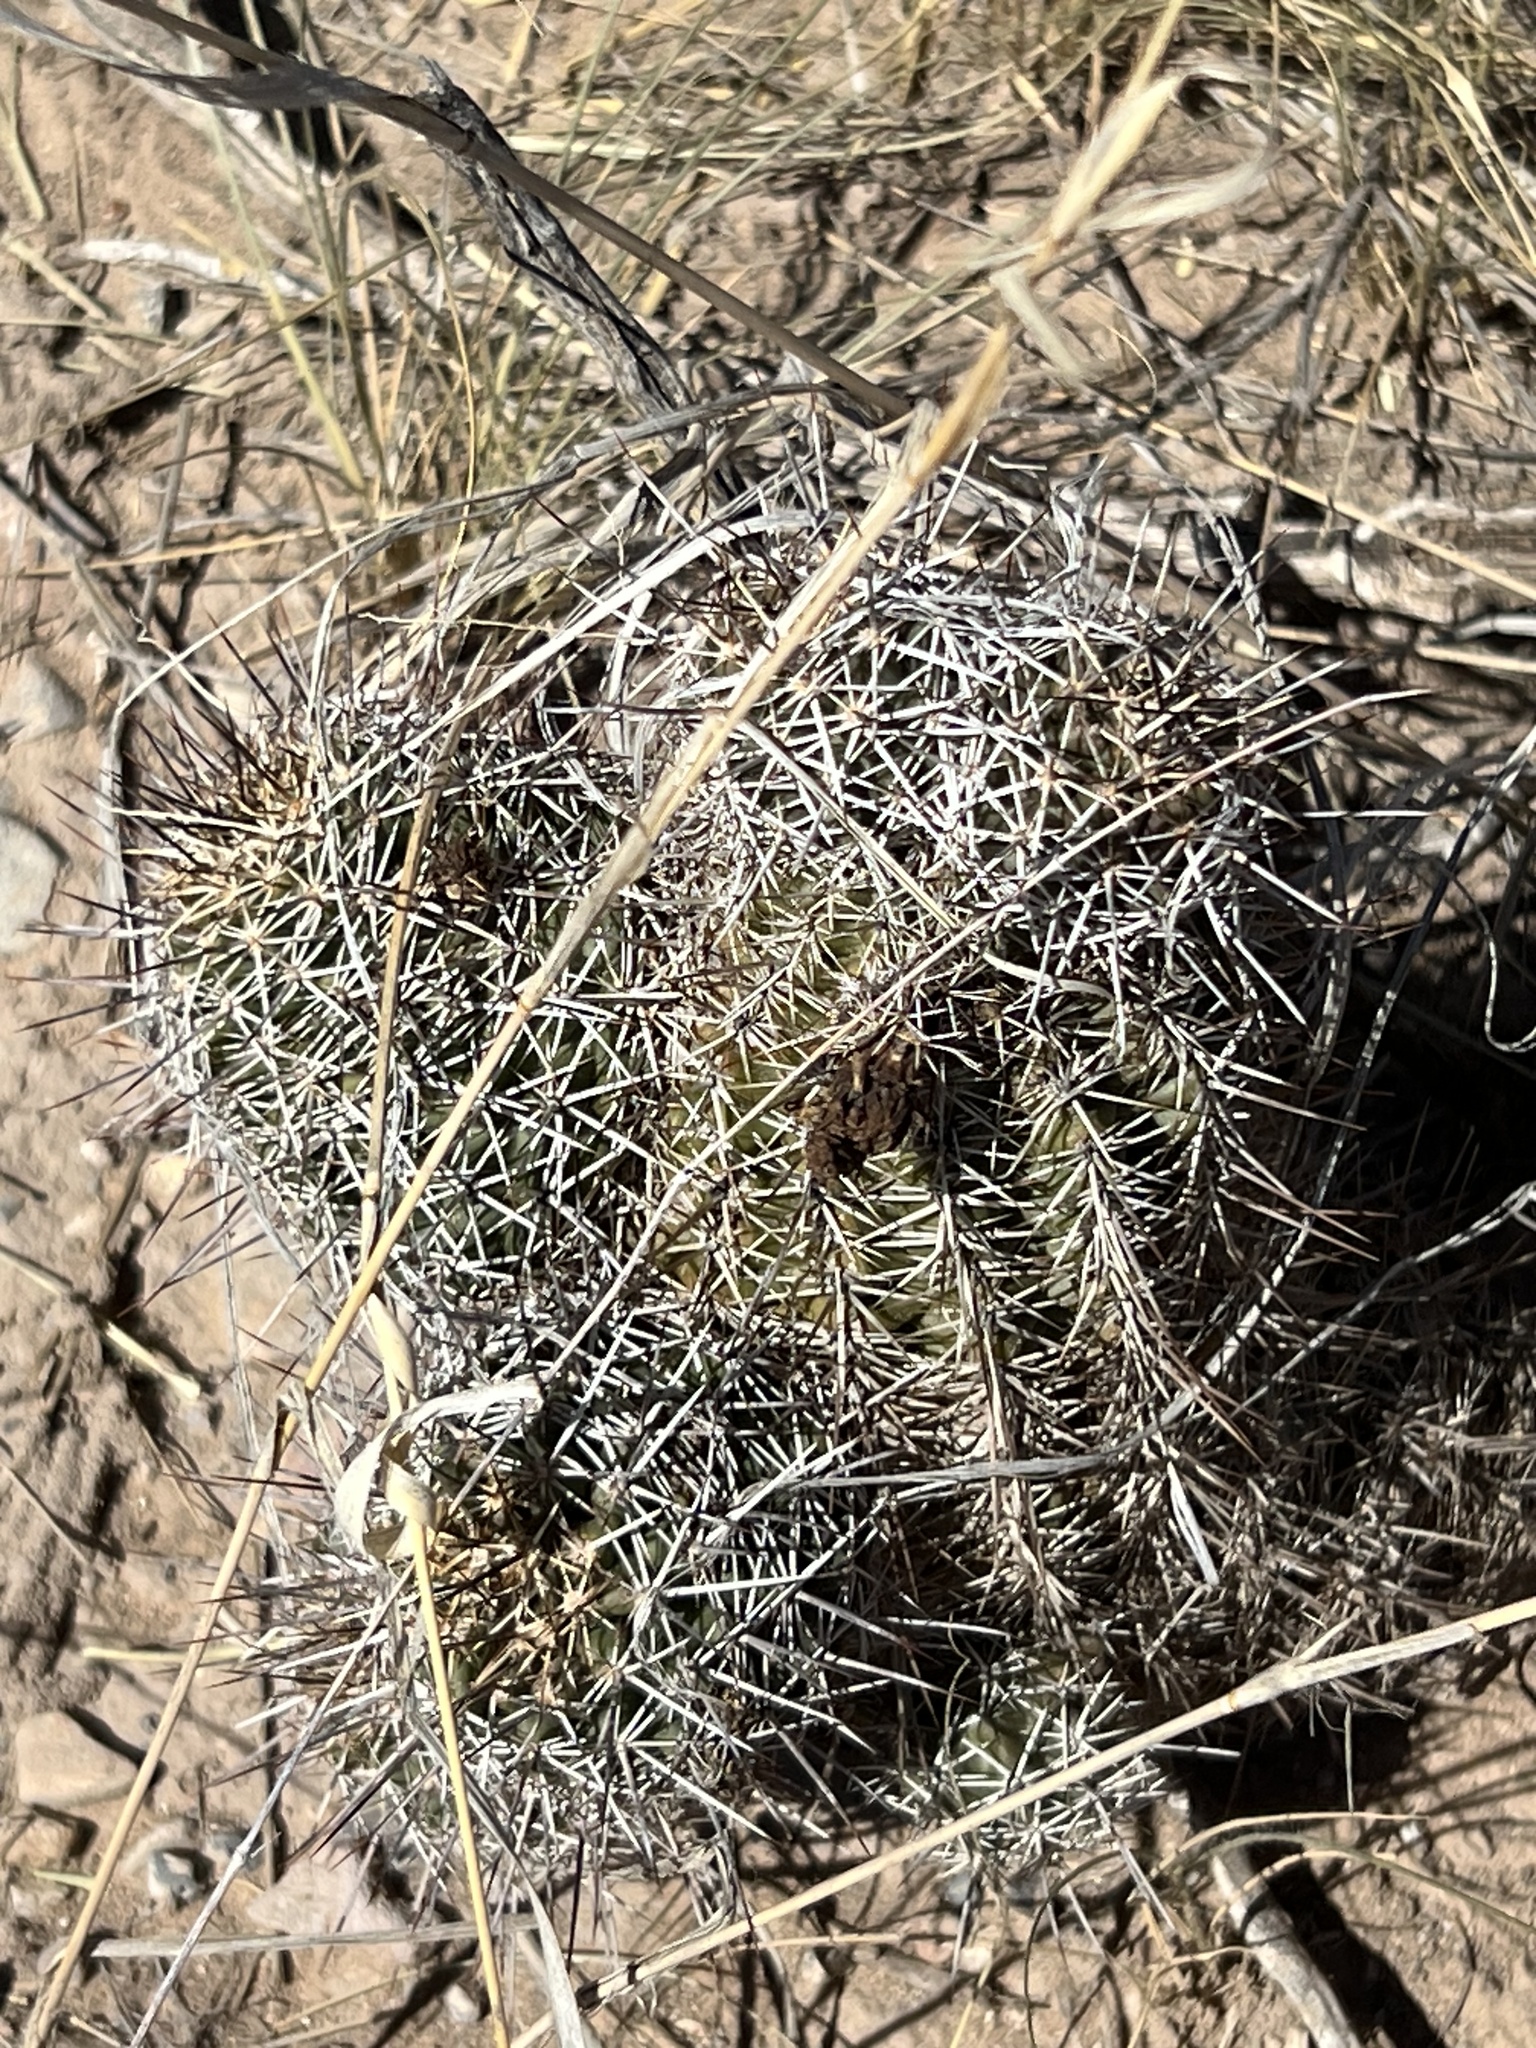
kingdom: Plantae
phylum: Tracheophyta
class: Magnoliopsida
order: Caryophyllales
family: Cactaceae
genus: Echinocereus
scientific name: Echinocereus fendleri
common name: Fendler's hedgehog cactus
